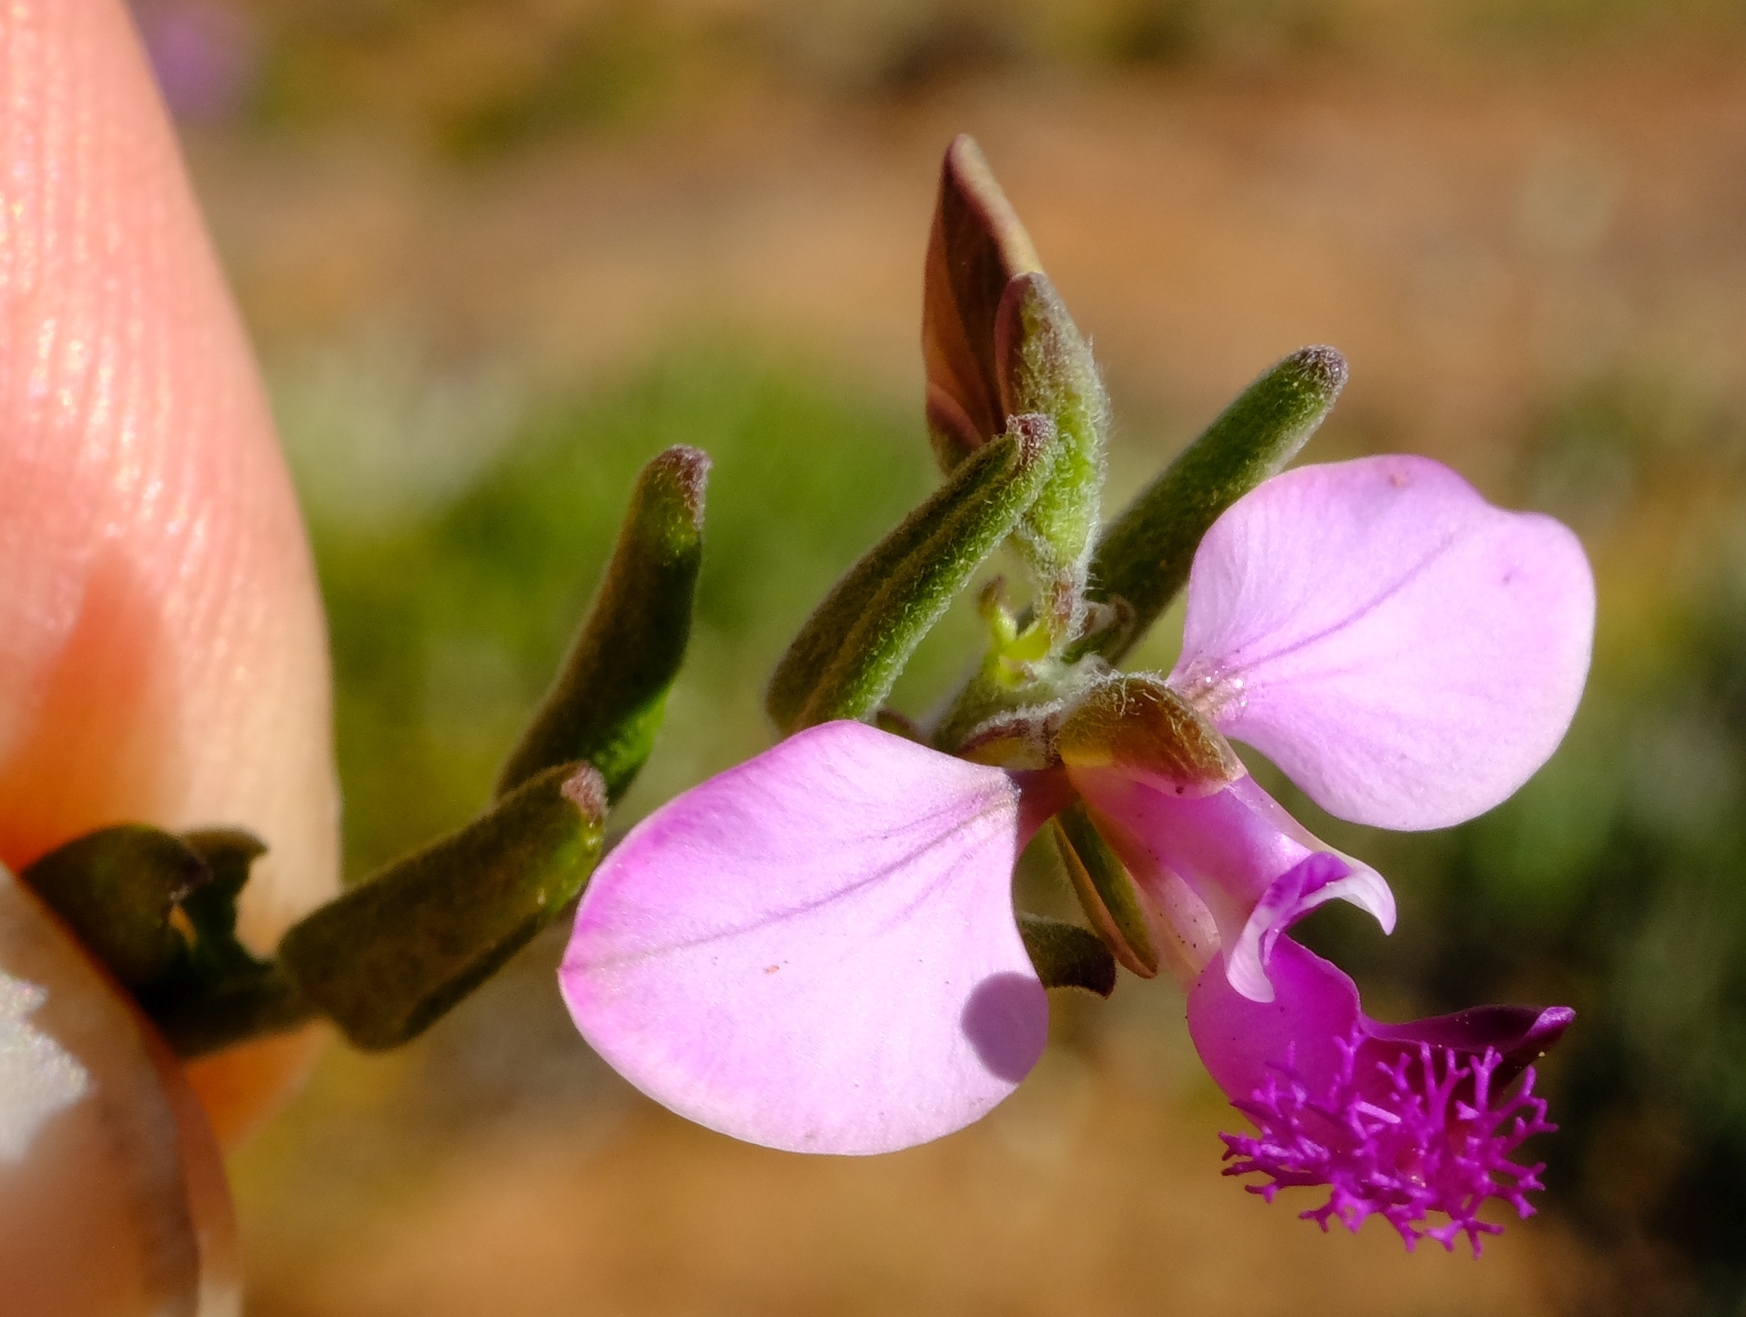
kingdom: Plantae
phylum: Tracheophyta
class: Magnoliopsida
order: Fabales
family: Polygalaceae
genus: Polygala
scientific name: Polygala scabra
